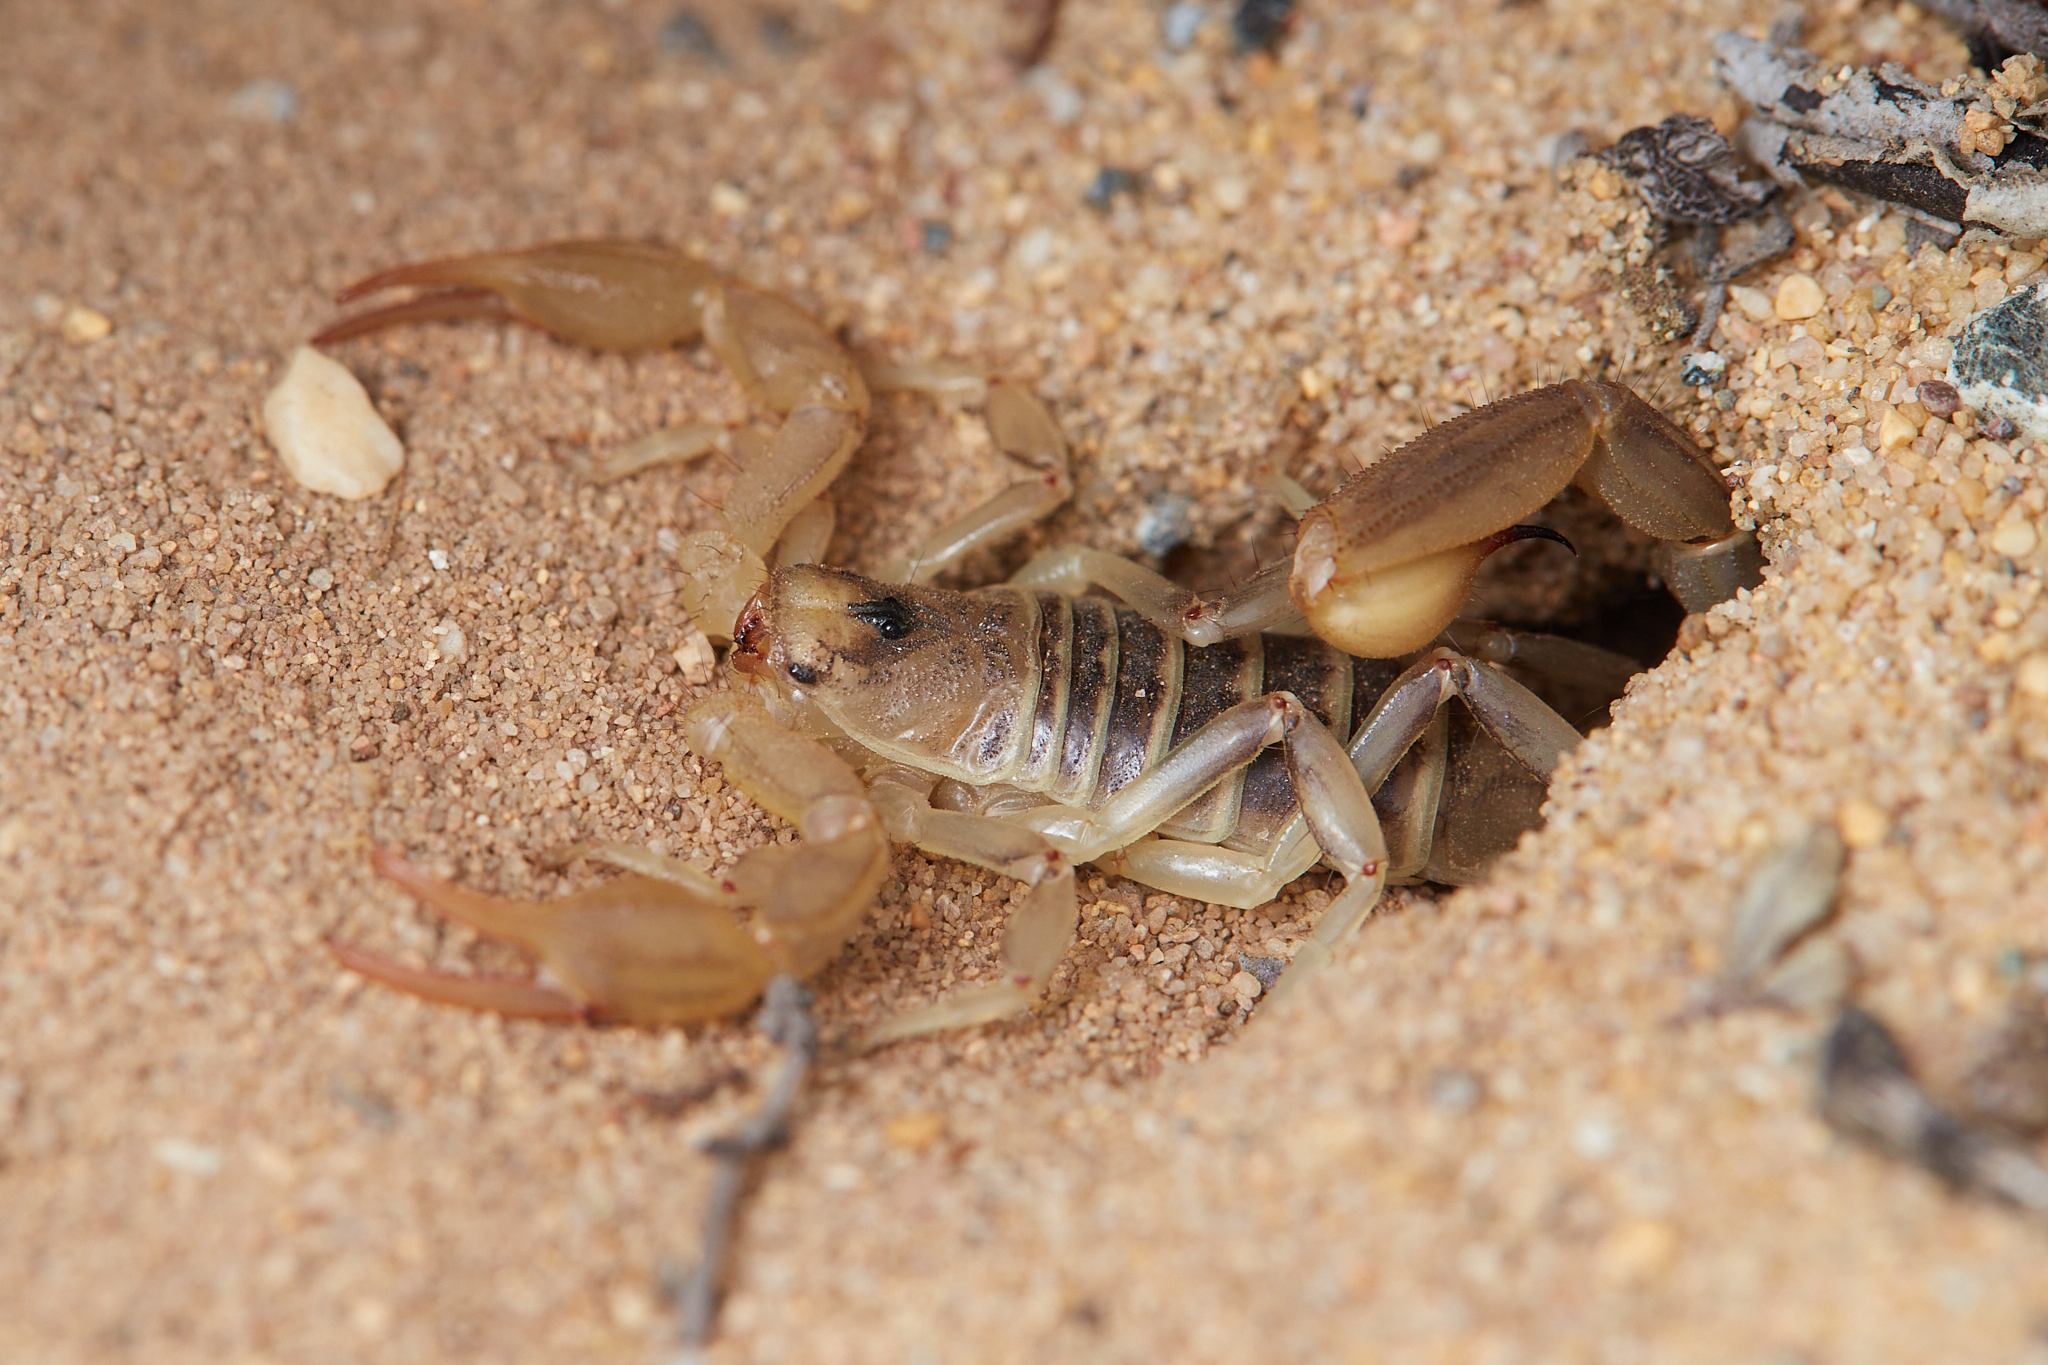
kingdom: Animalia
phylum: Arthropoda
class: Arachnida
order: Scorpiones
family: Vaejovidae
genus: Paruroctonus
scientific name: Paruroctonus maritimus
